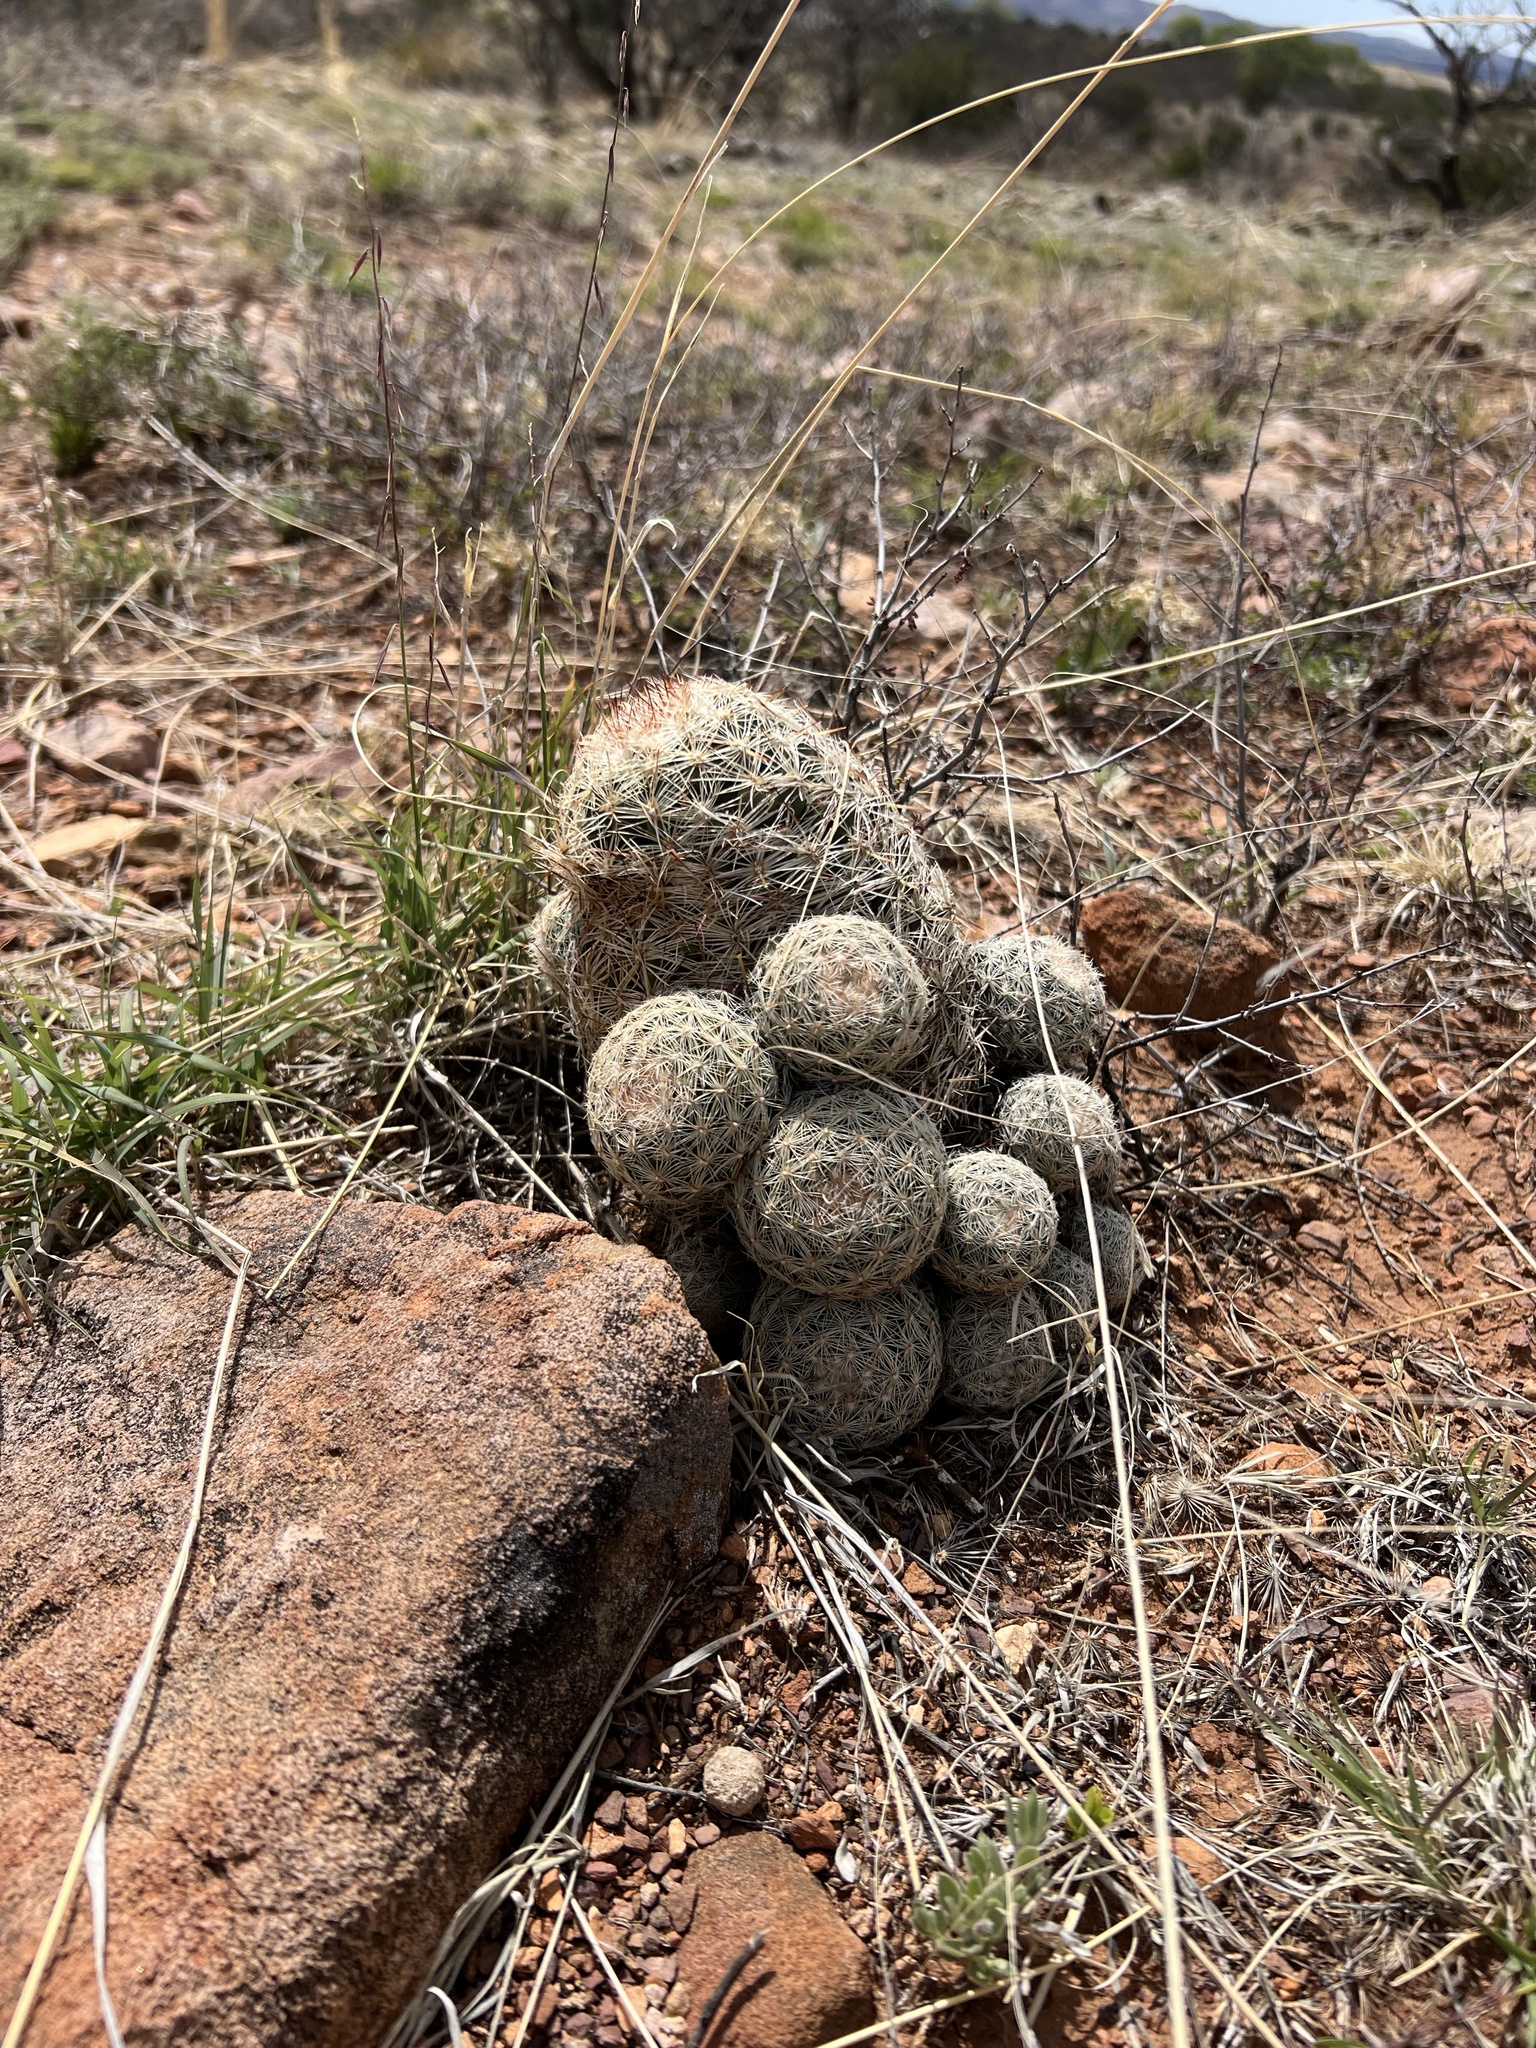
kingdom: Plantae
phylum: Tracheophyta
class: Magnoliopsida
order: Caryophyllales
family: Cactaceae
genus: Pelecyphora
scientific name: Pelecyphora vivipara
